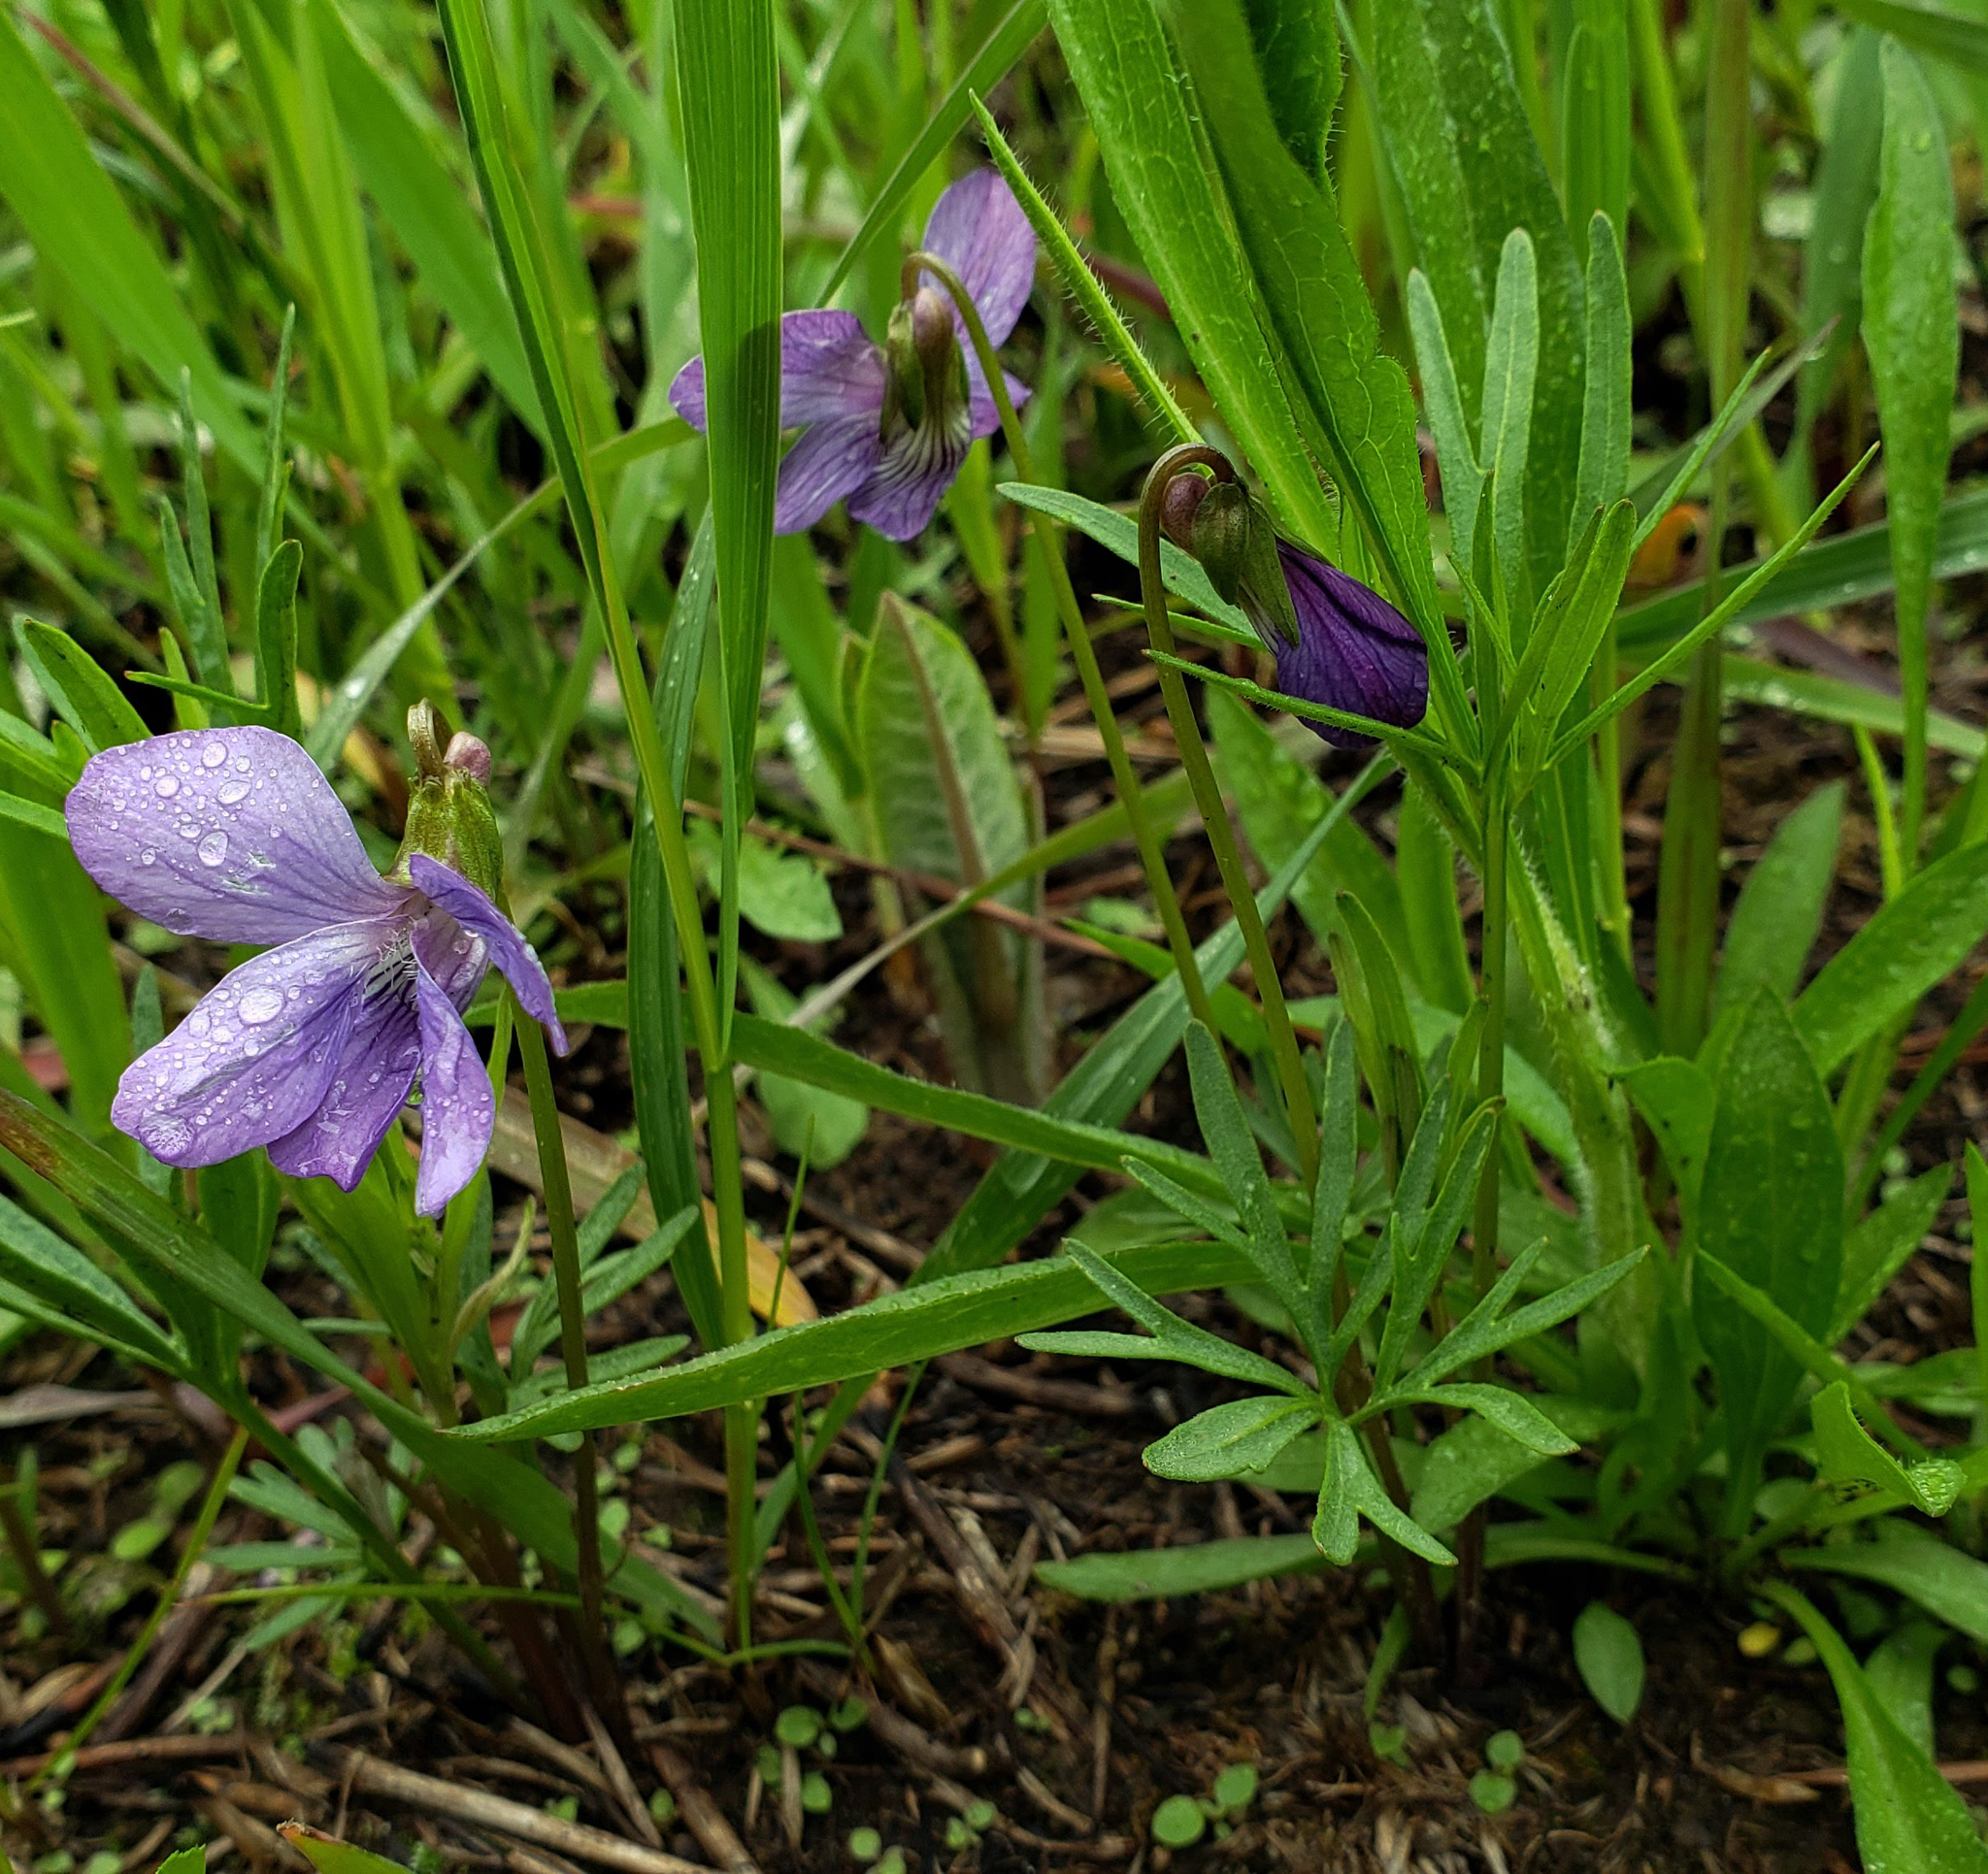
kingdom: Plantae
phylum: Tracheophyta
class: Magnoliopsida
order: Malpighiales
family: Violaceae
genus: Viola
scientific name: Viola pedatifida
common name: Prairie violet
